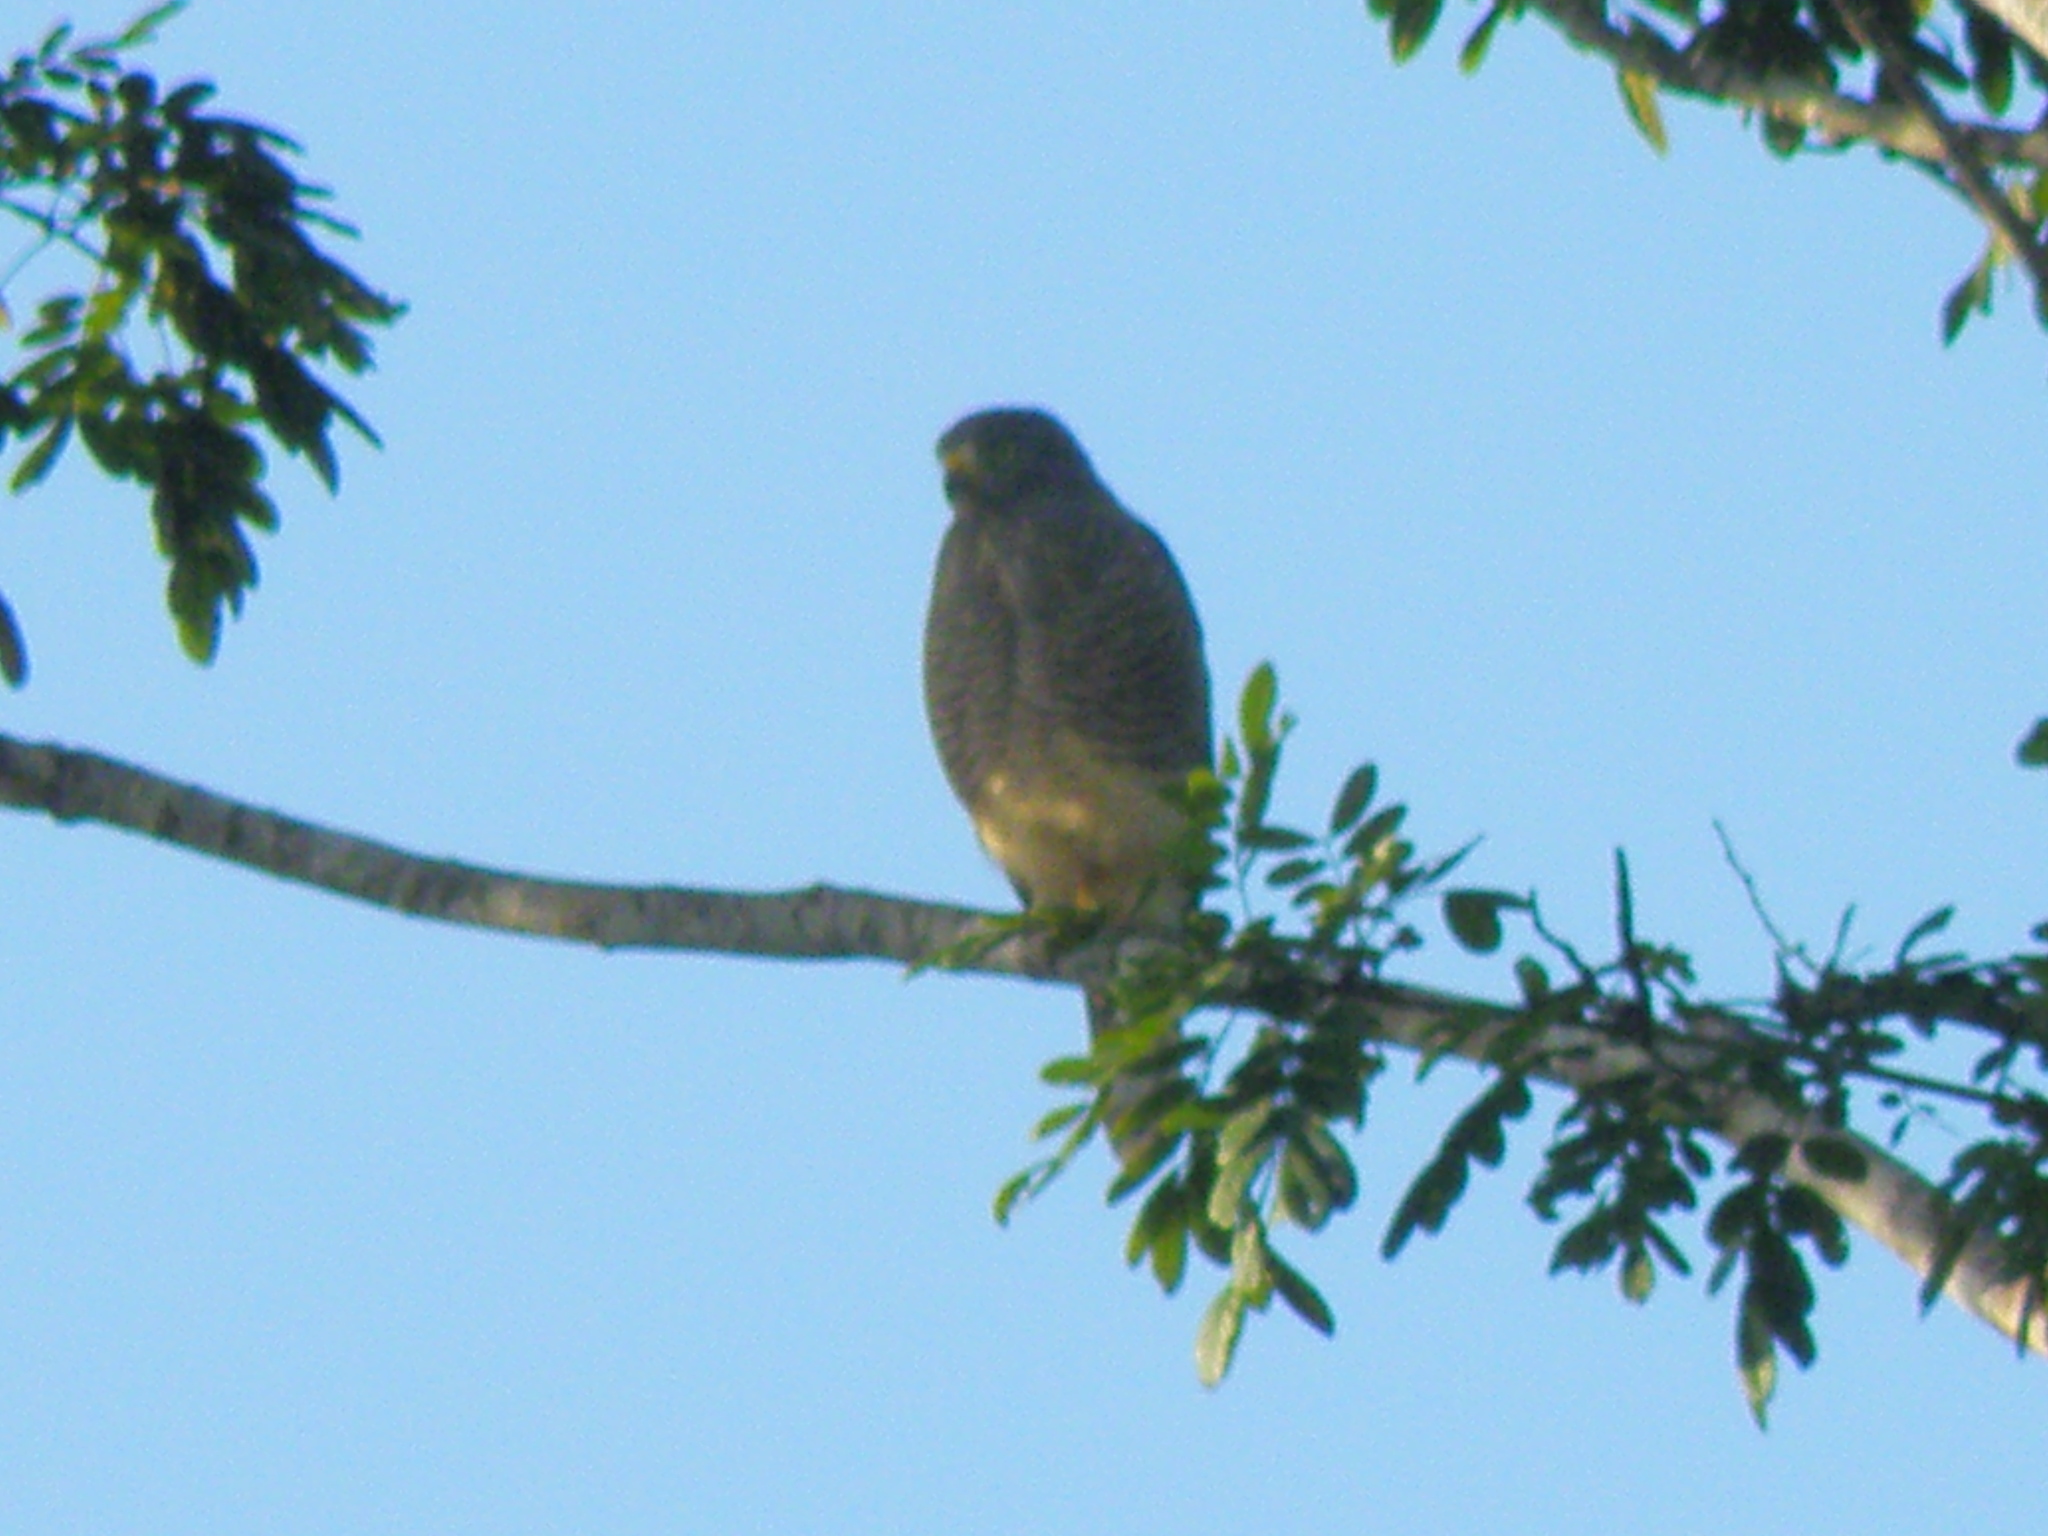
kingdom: Animalia
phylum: Chordata
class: Aves
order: Accipitriformes
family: Accipitridae
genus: Rupornis
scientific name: Rupornis magnirostris
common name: Roadside hawk
